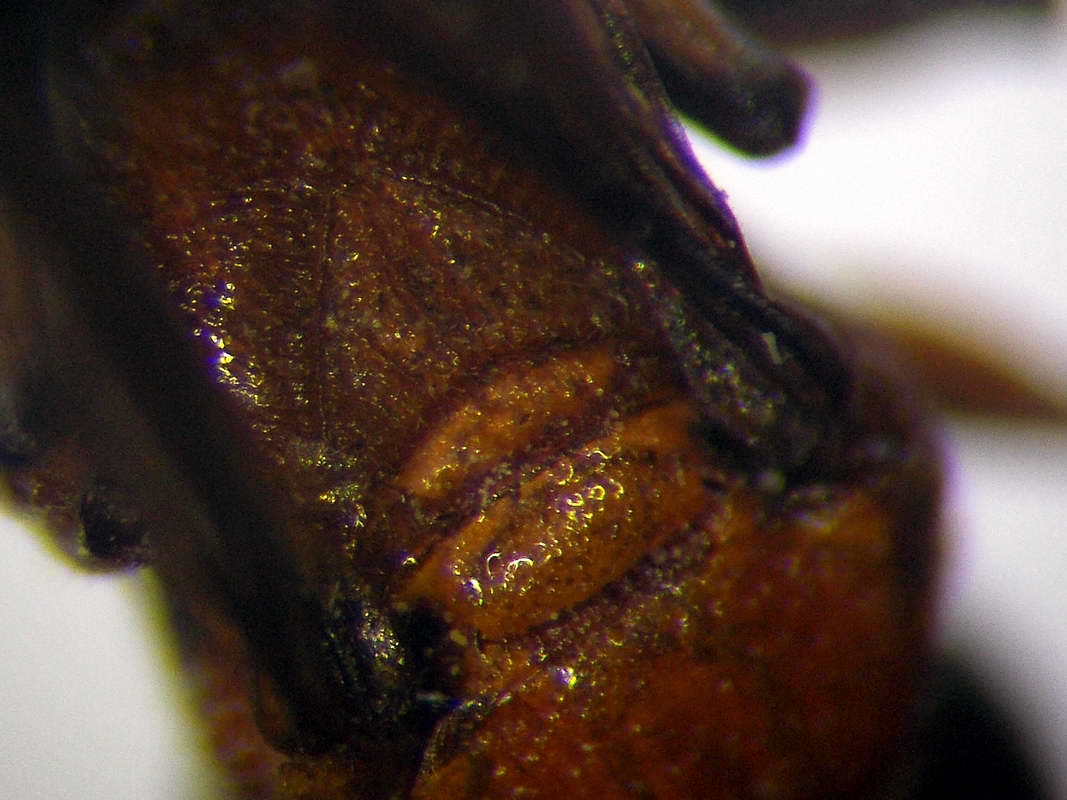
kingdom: Animalia
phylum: Arthropoda
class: Insecta
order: Hymenoptera
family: Crabronidae
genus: Harpactus
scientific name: Harpactus laevis
